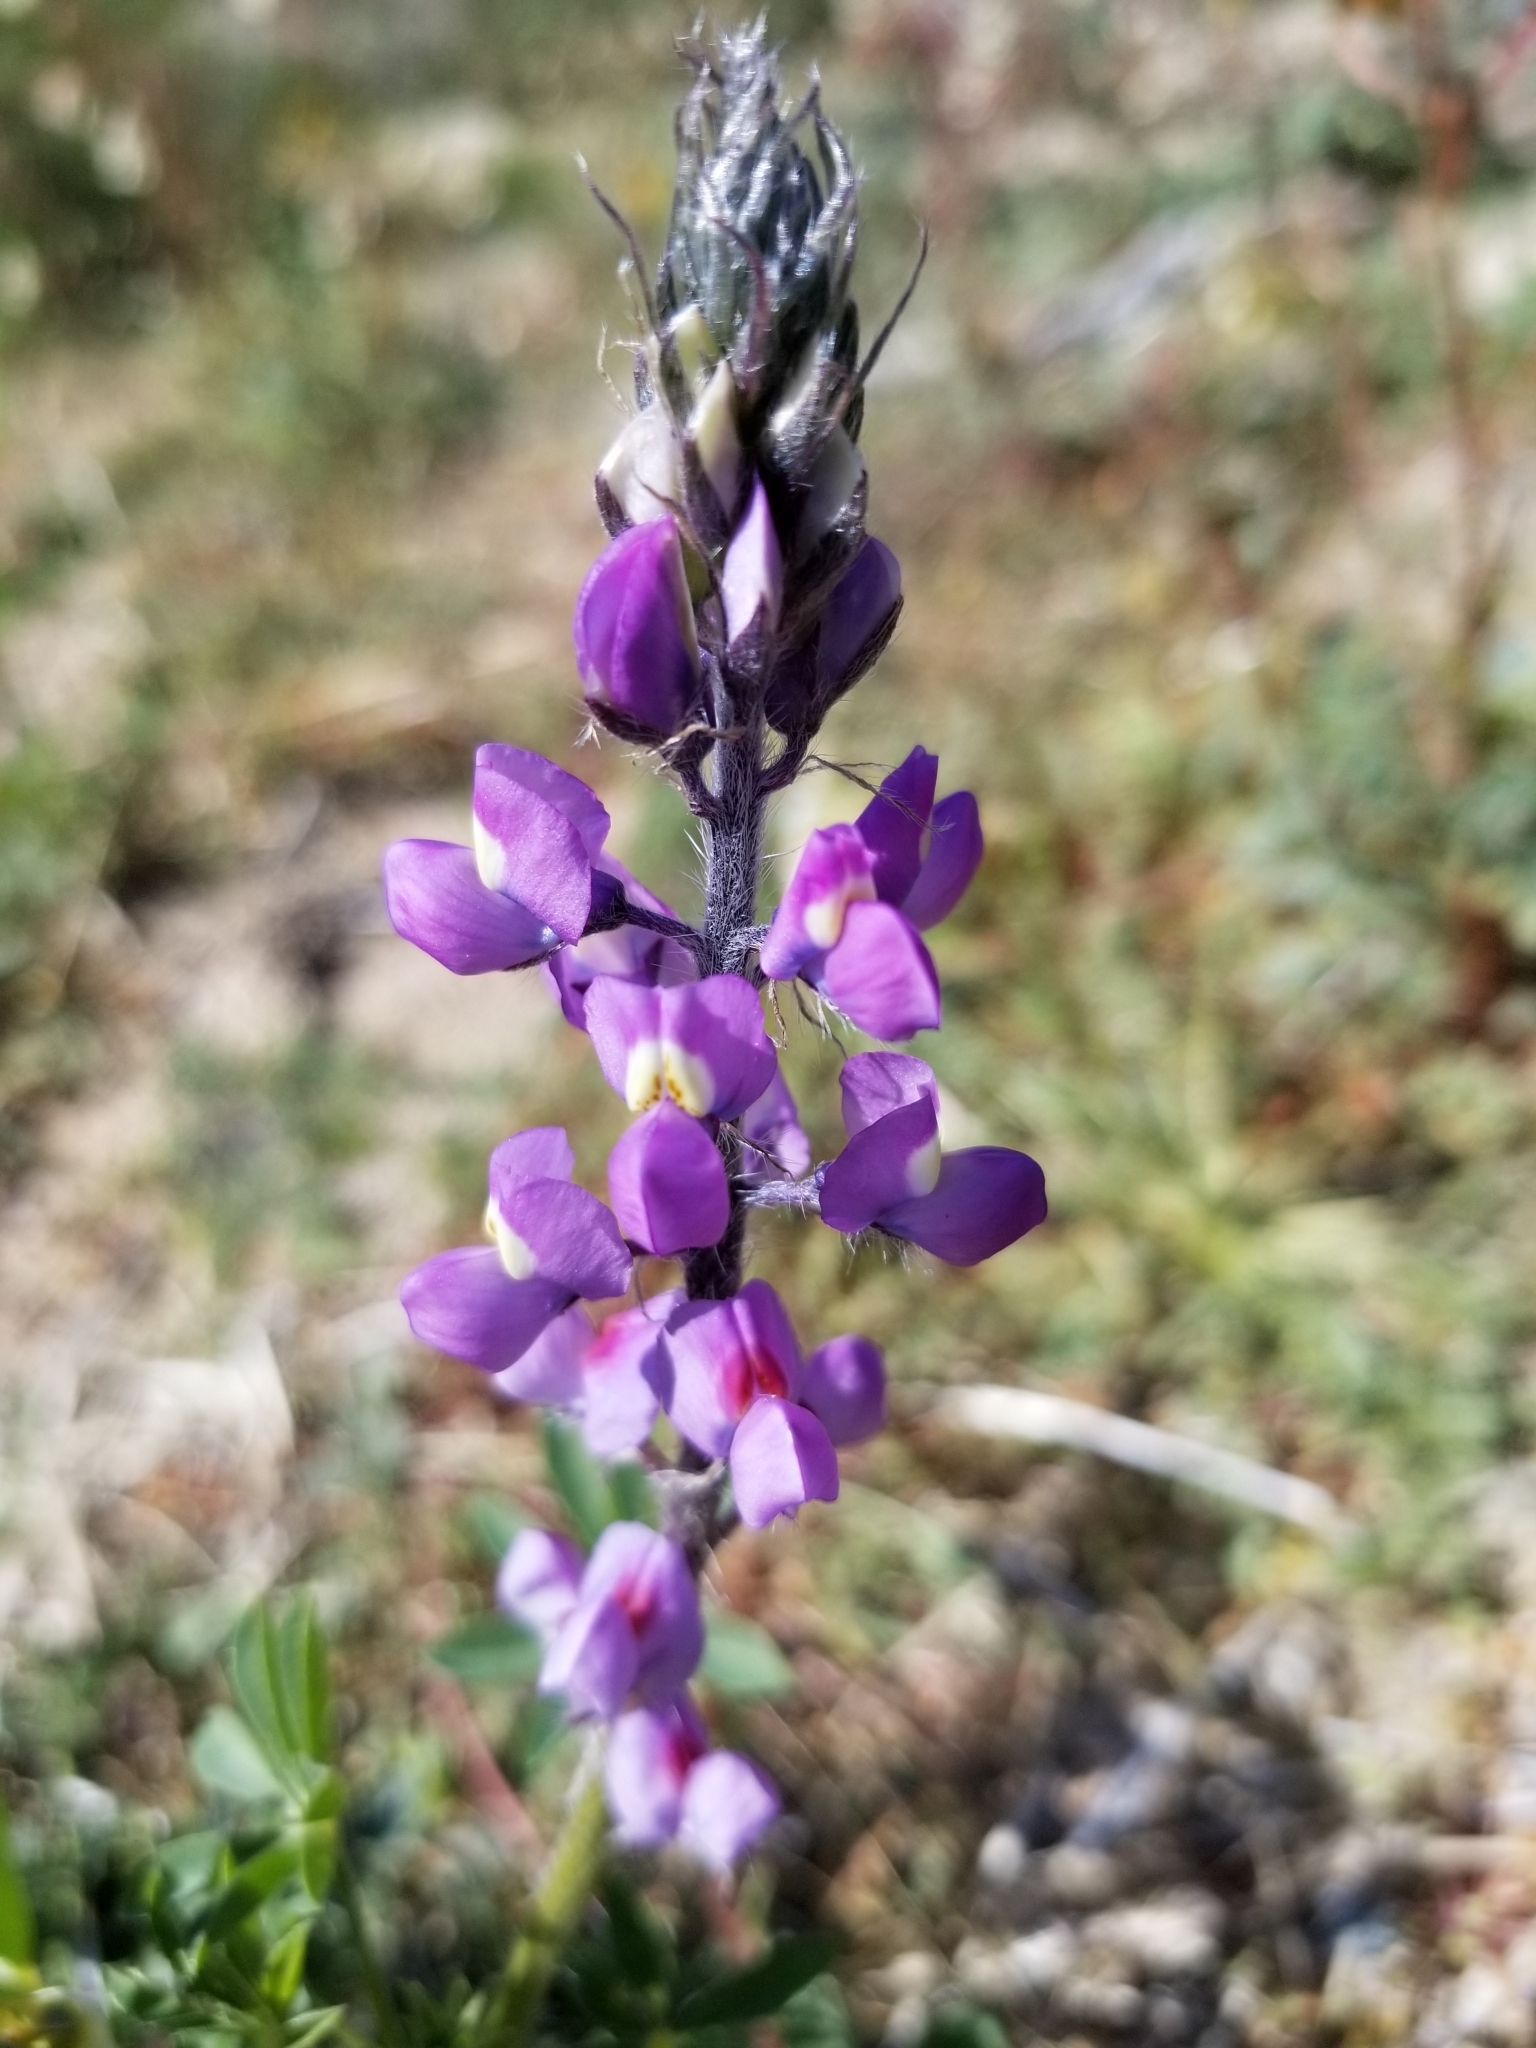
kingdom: Plantae
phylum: Tracheophyta
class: Magnoliopsida
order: Fabales
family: Fabaceae
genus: Lupinus
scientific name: Lupinus arizonicus
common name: Arizona lupine
